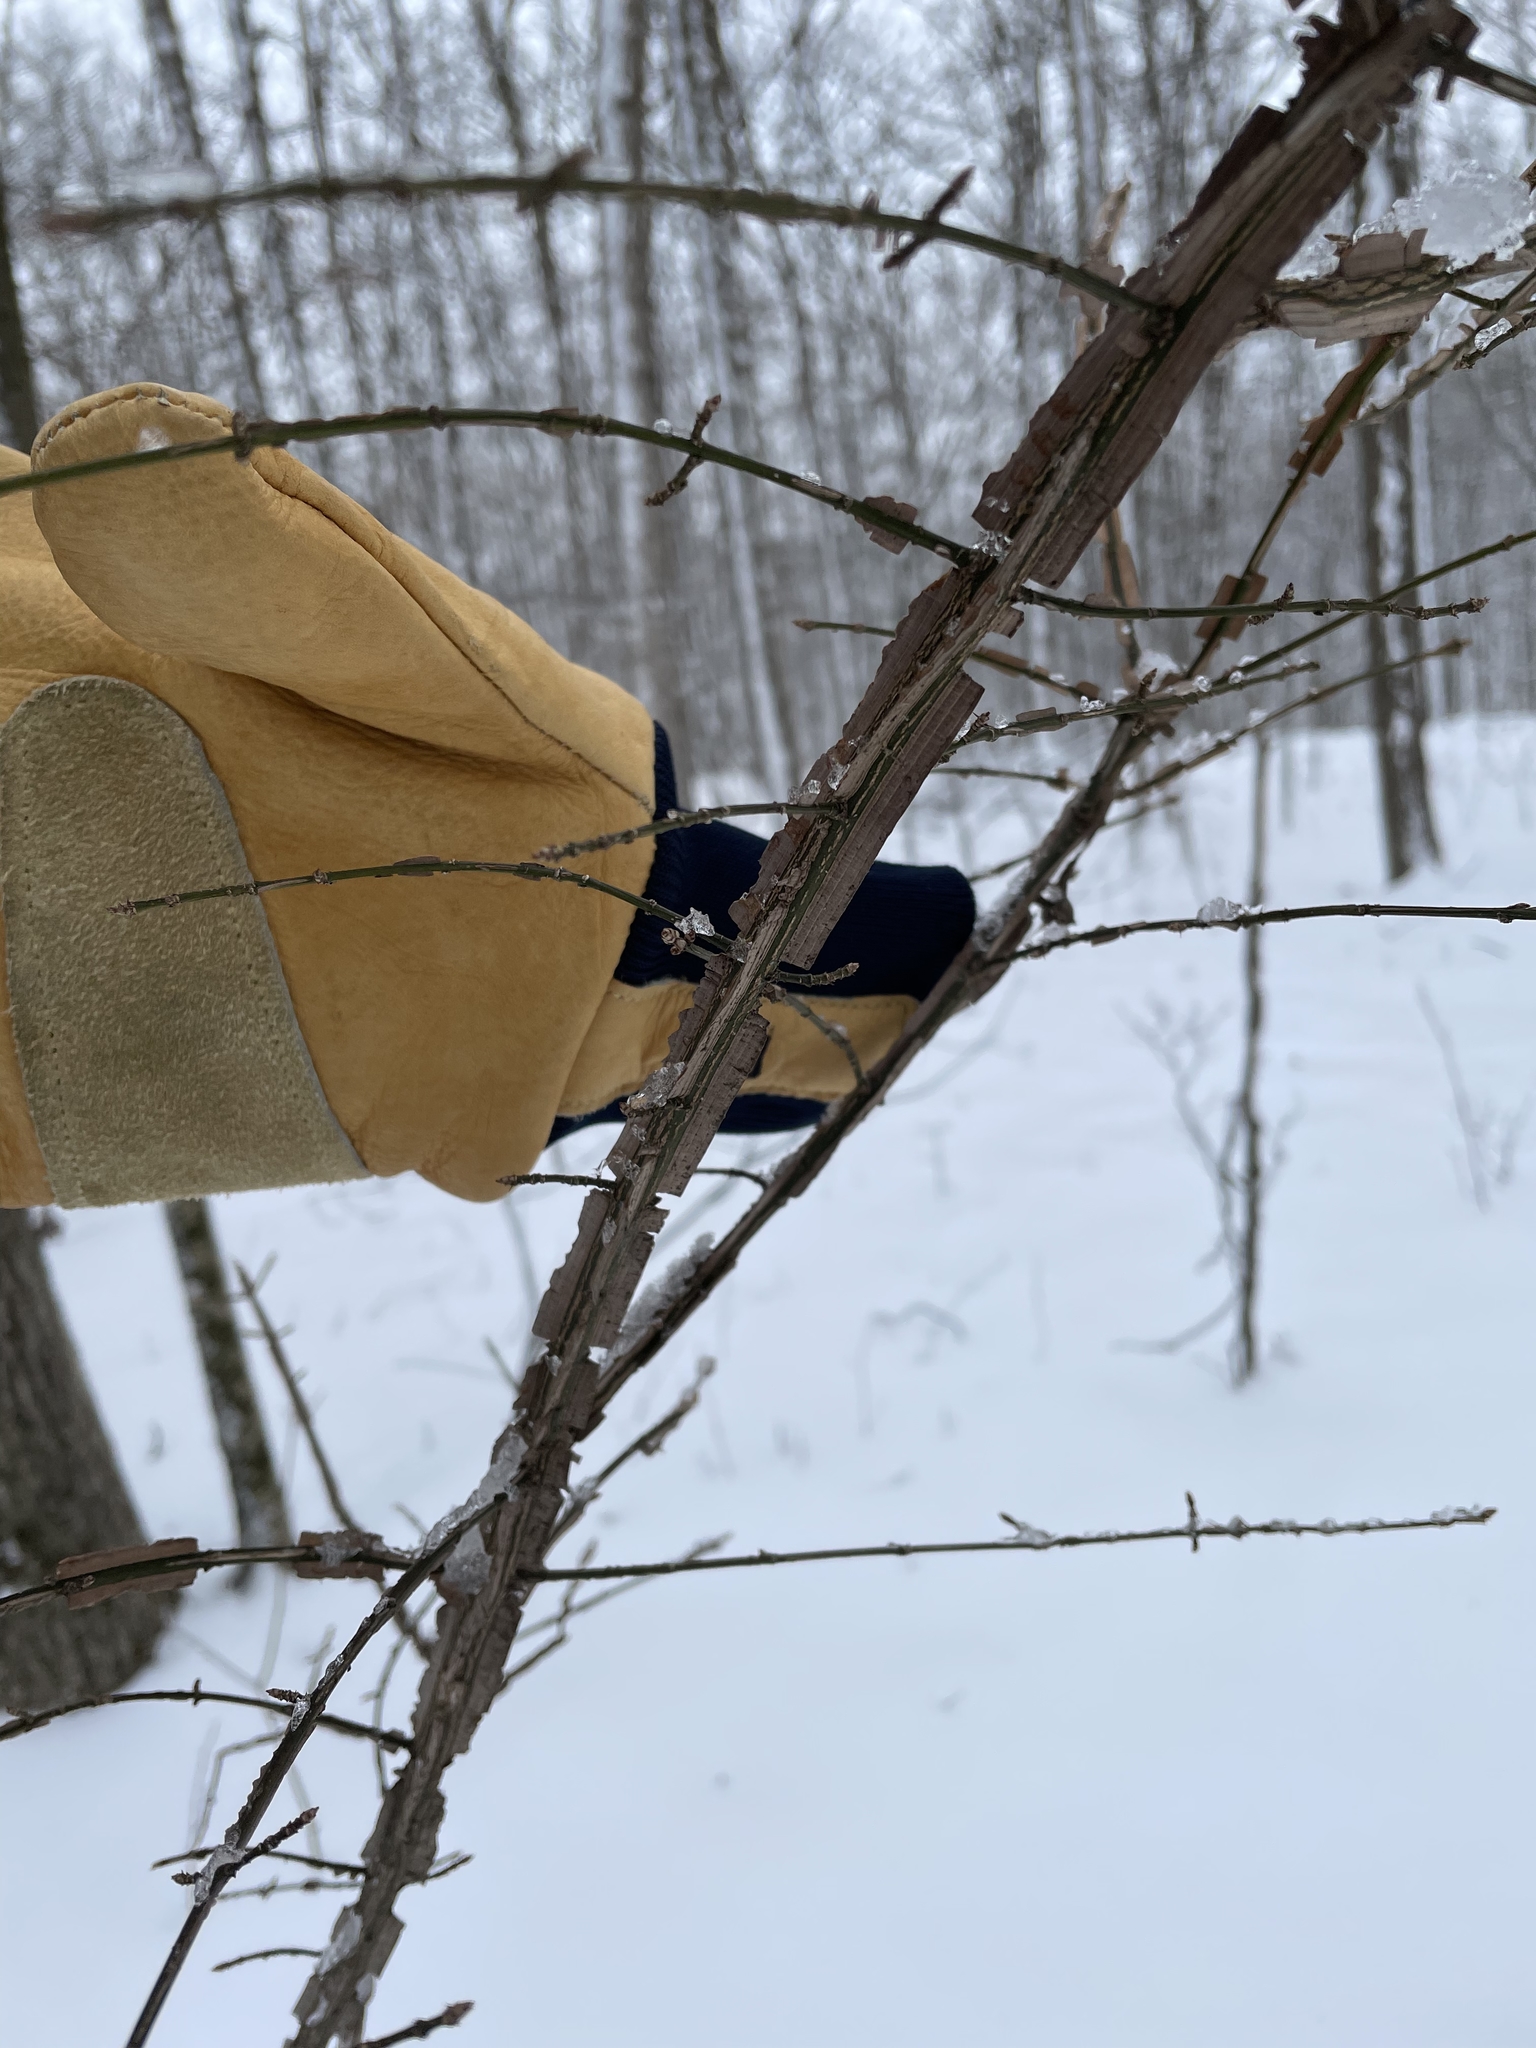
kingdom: Plantae
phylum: Tracheophyta
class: Magnoliopsida
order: Celastrales
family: Celastraceae
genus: Euonymus
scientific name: Euonymus alatus
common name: Winged euonymus
